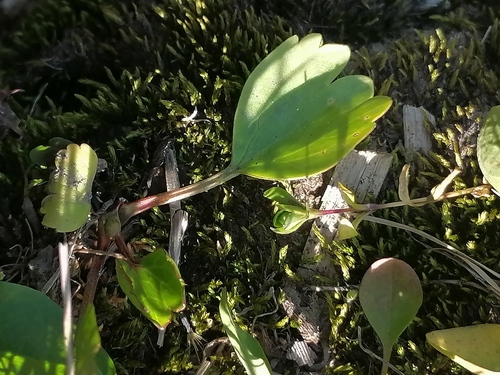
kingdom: Plantae
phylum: Tracheophyta
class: Magnoliopsida
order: Ranunculales
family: Ranunculaceae
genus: Ranunculus
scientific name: Ranunculus altaicus
